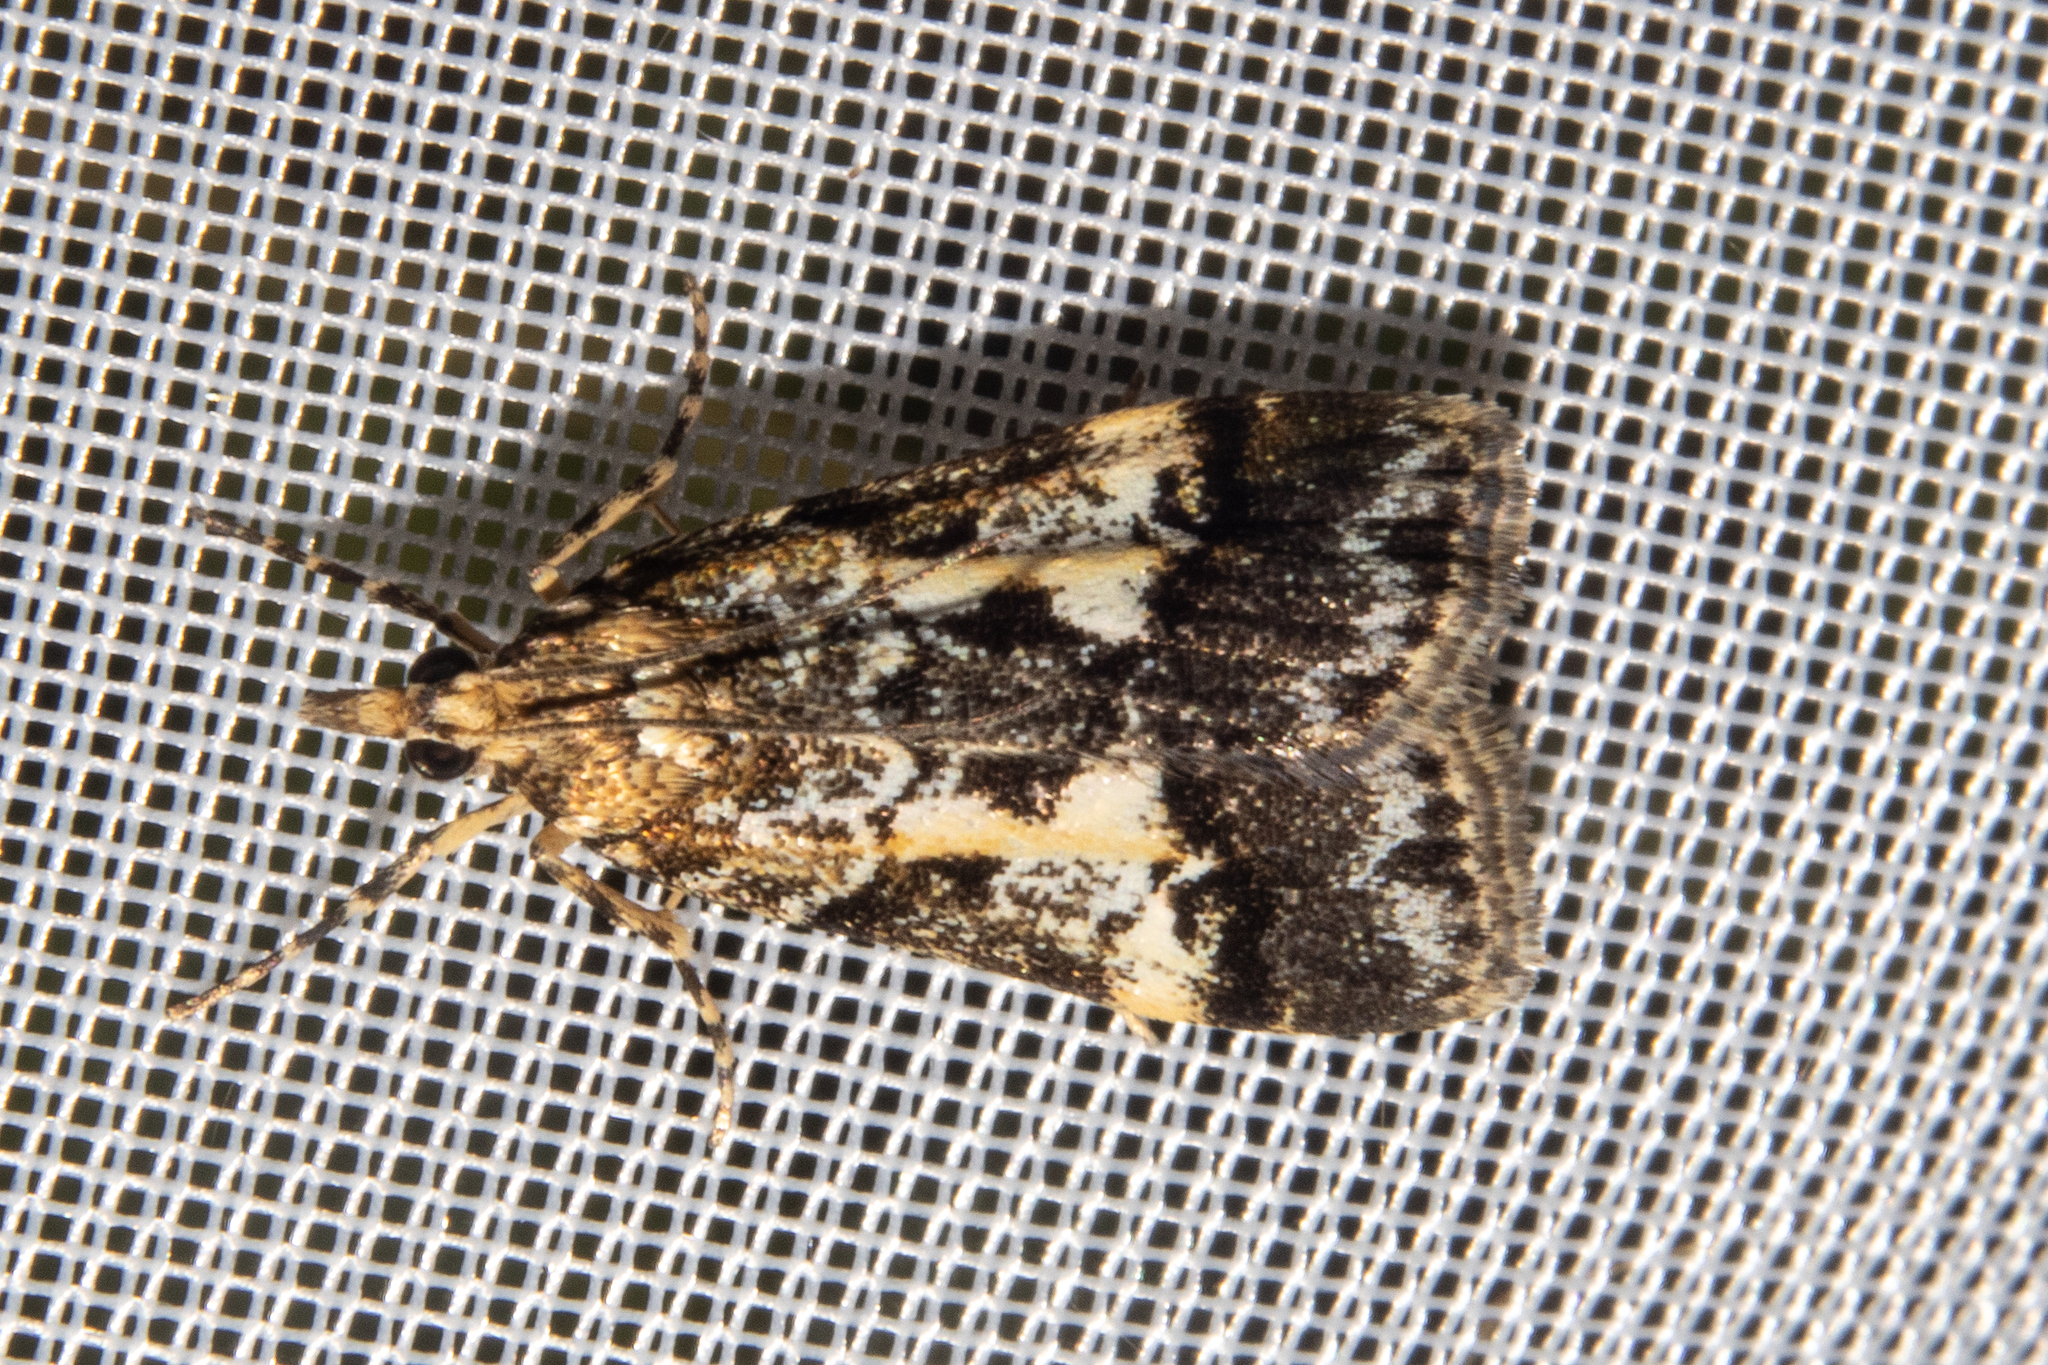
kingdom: Animalia
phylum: Arthropoda
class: Insecta
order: Lepidoptera
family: Crambidae
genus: Eudonia
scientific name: Eudonia characta
